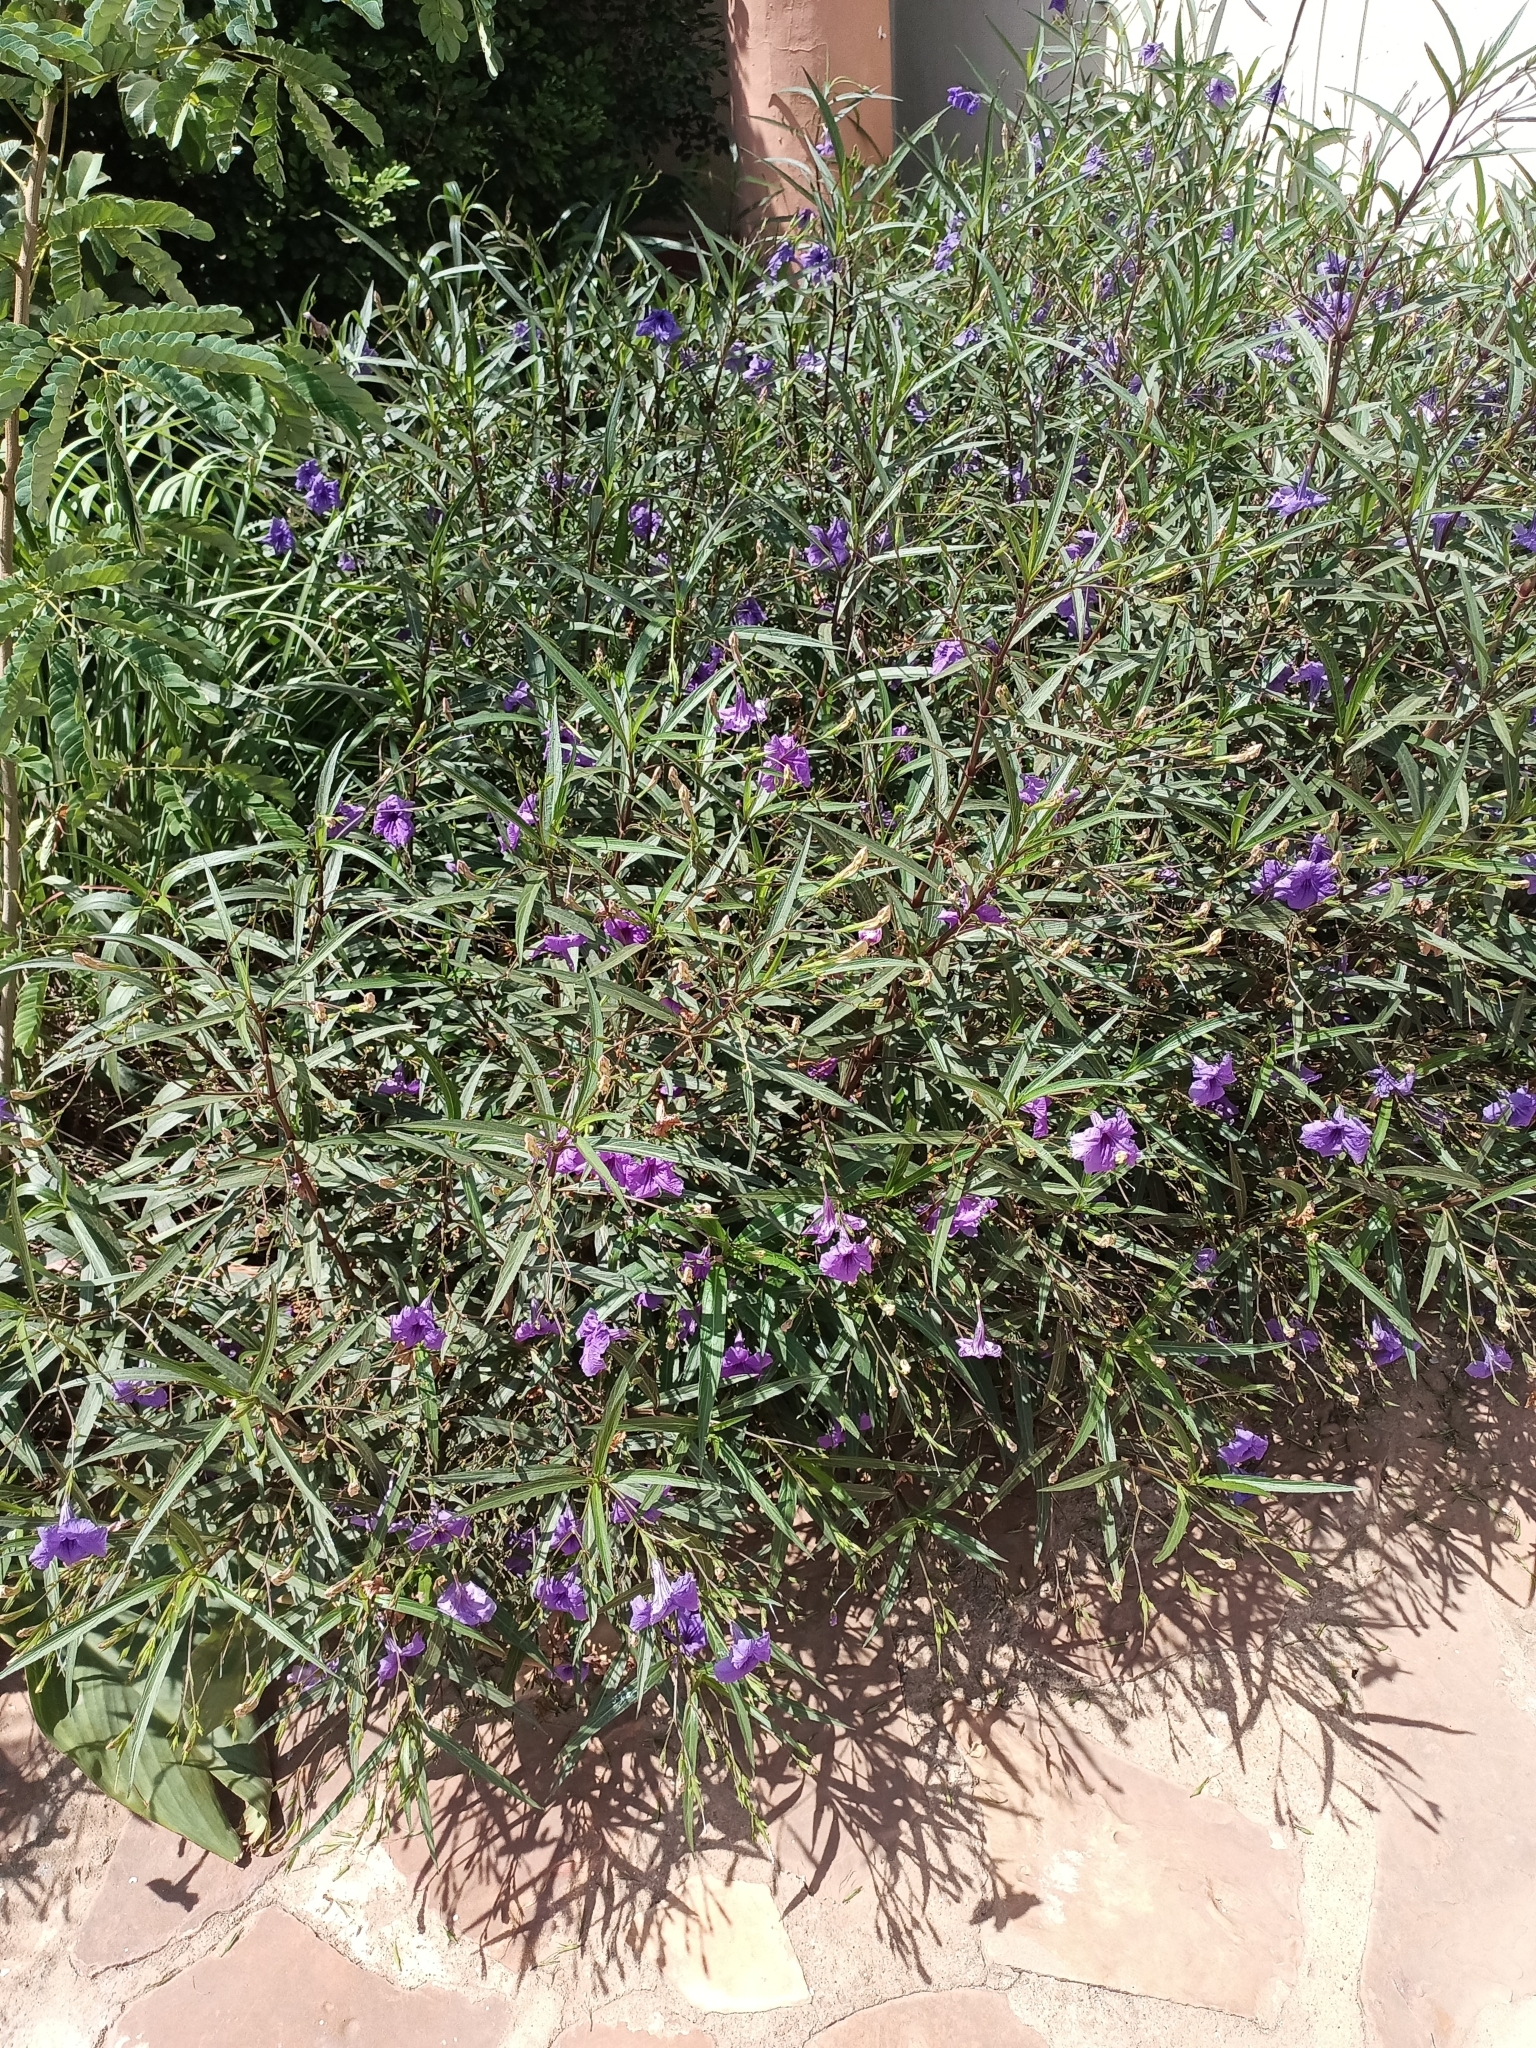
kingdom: Plantae
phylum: Tracheophyta
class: Magnoliopsida
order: Lamiales
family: Acanthaceae
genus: Ruellia
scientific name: Ruellia simplex
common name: Softseed wild petunia
